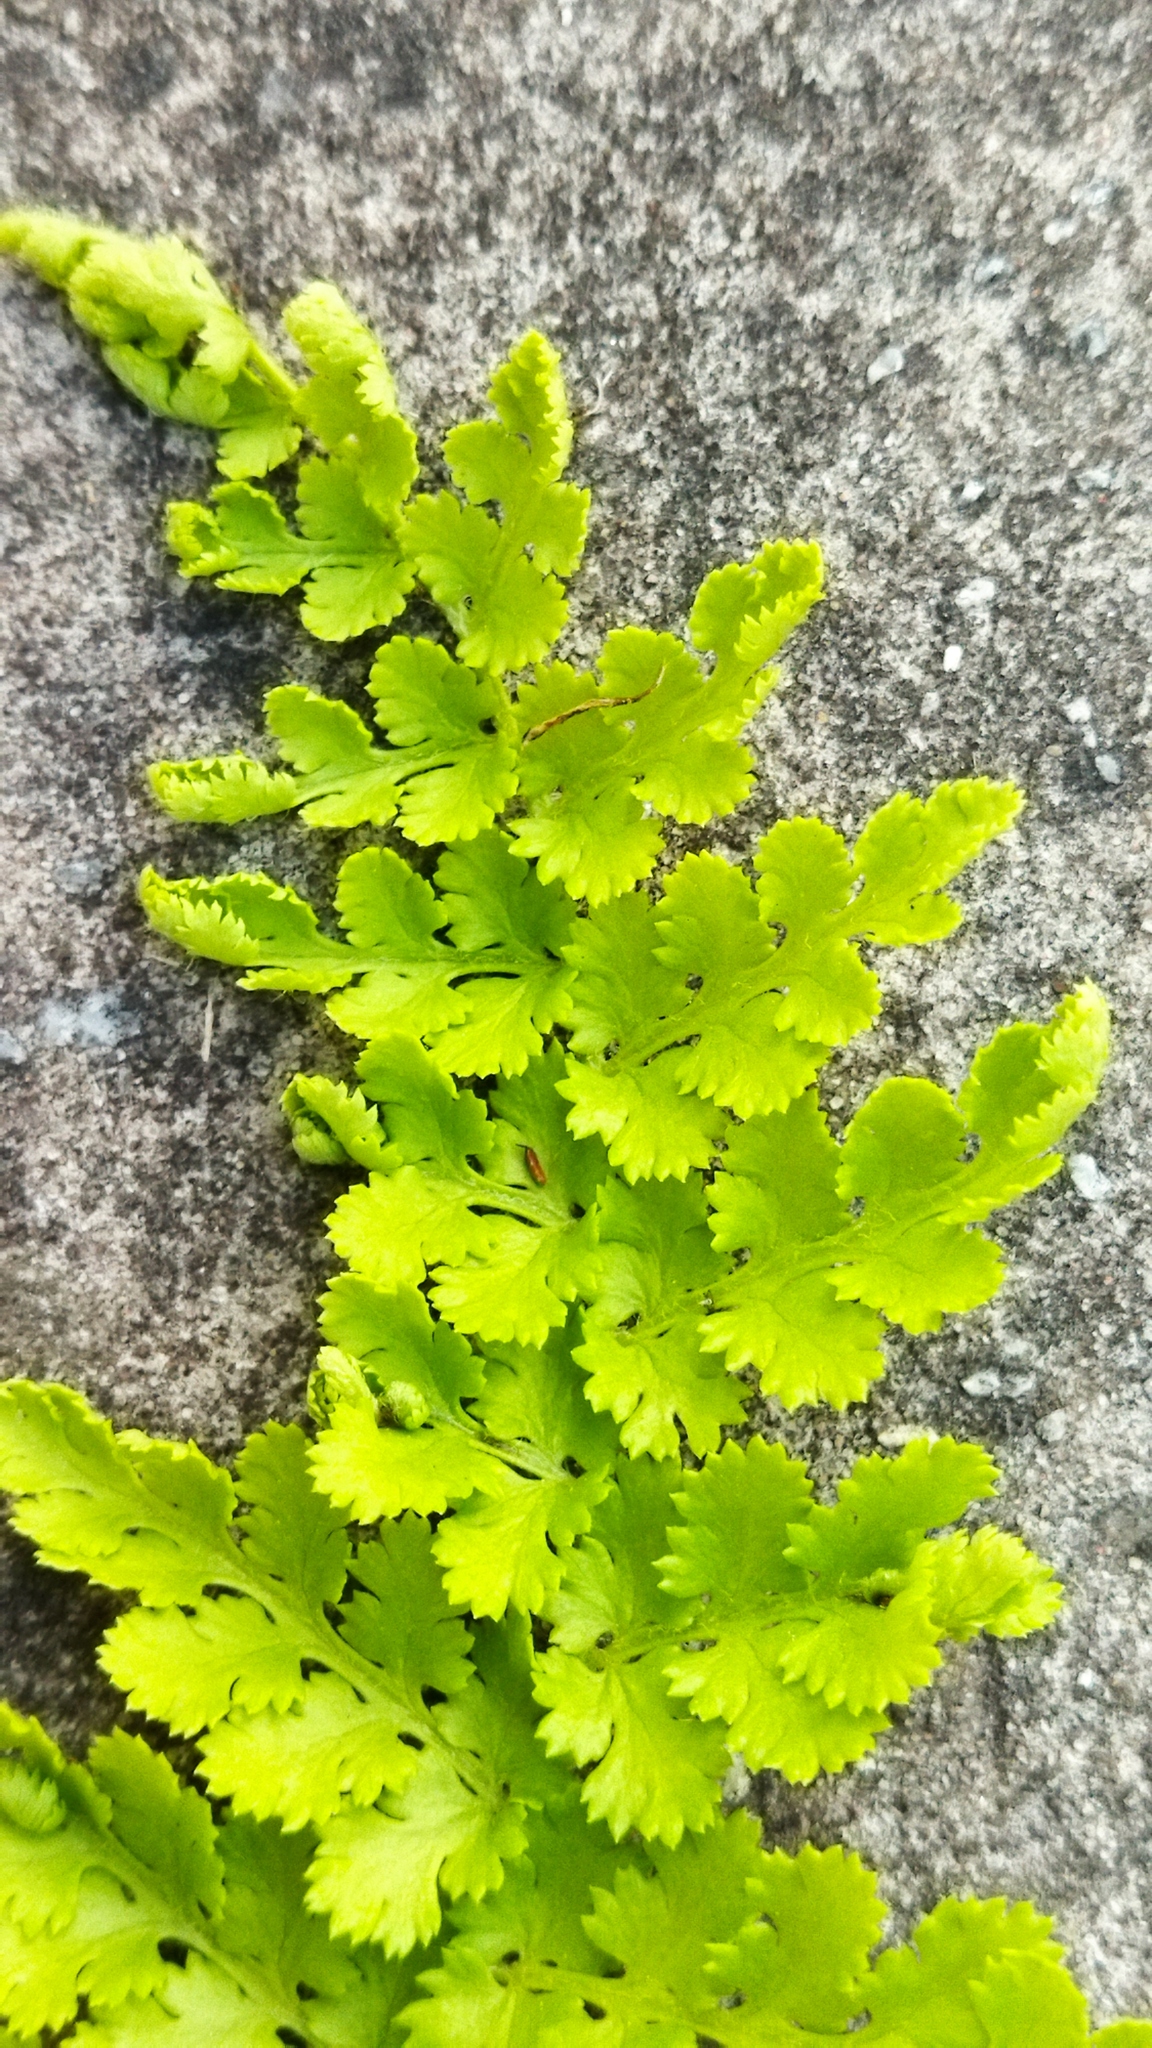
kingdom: Plantae
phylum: Tracheophyta
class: Polypodiopsida
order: Schizaeales
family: Anemiaceae
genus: Anemia
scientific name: Anemia caffrorum
